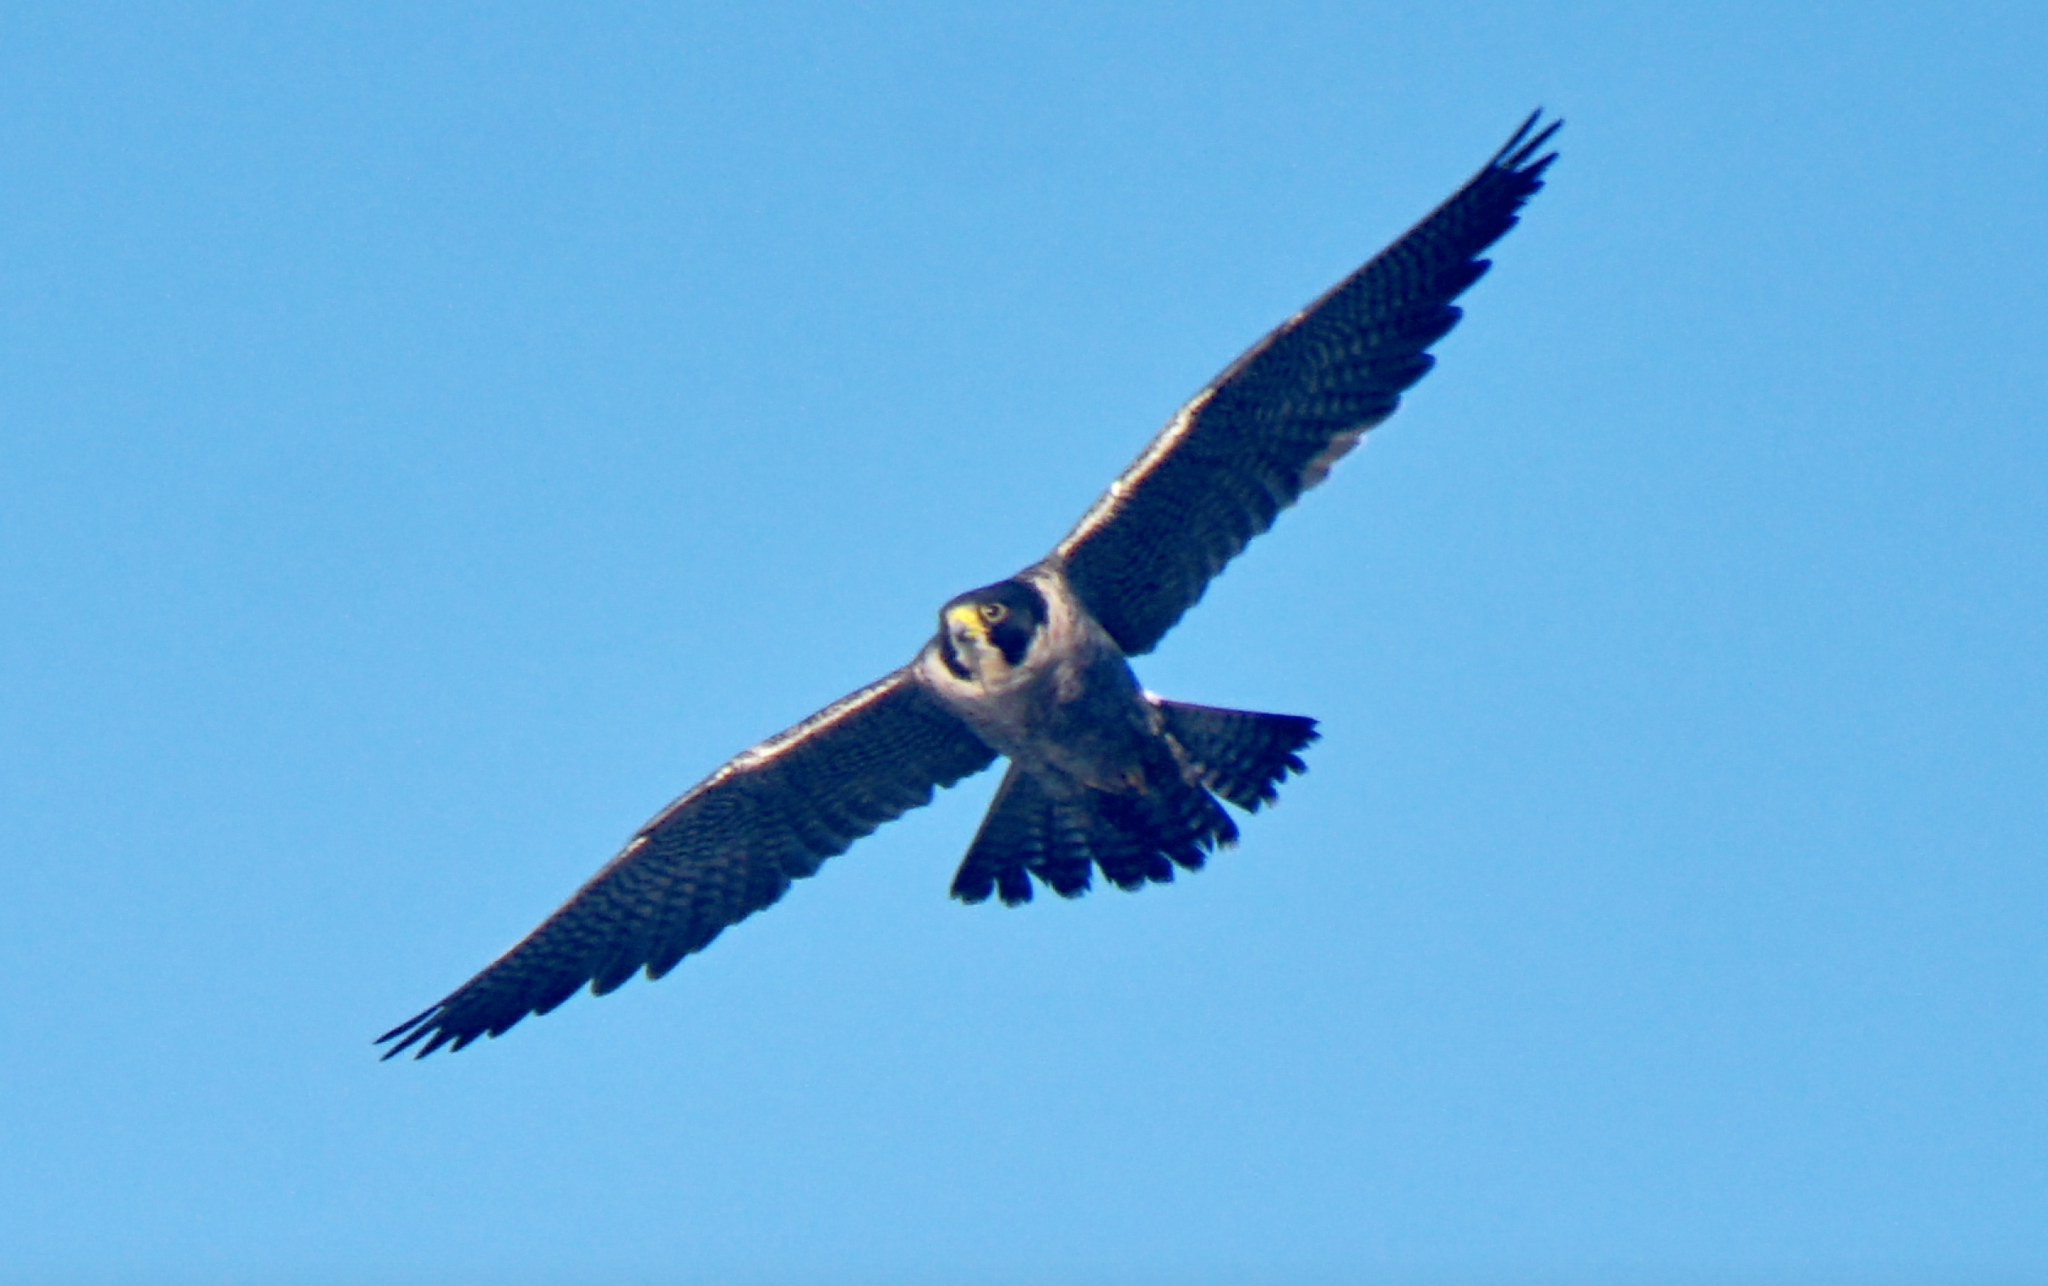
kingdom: Animalia
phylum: Chordata
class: Aves
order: Falconiformes
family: Falconidae
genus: Falco
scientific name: Falco peregrinus
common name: Peregrine falcon
